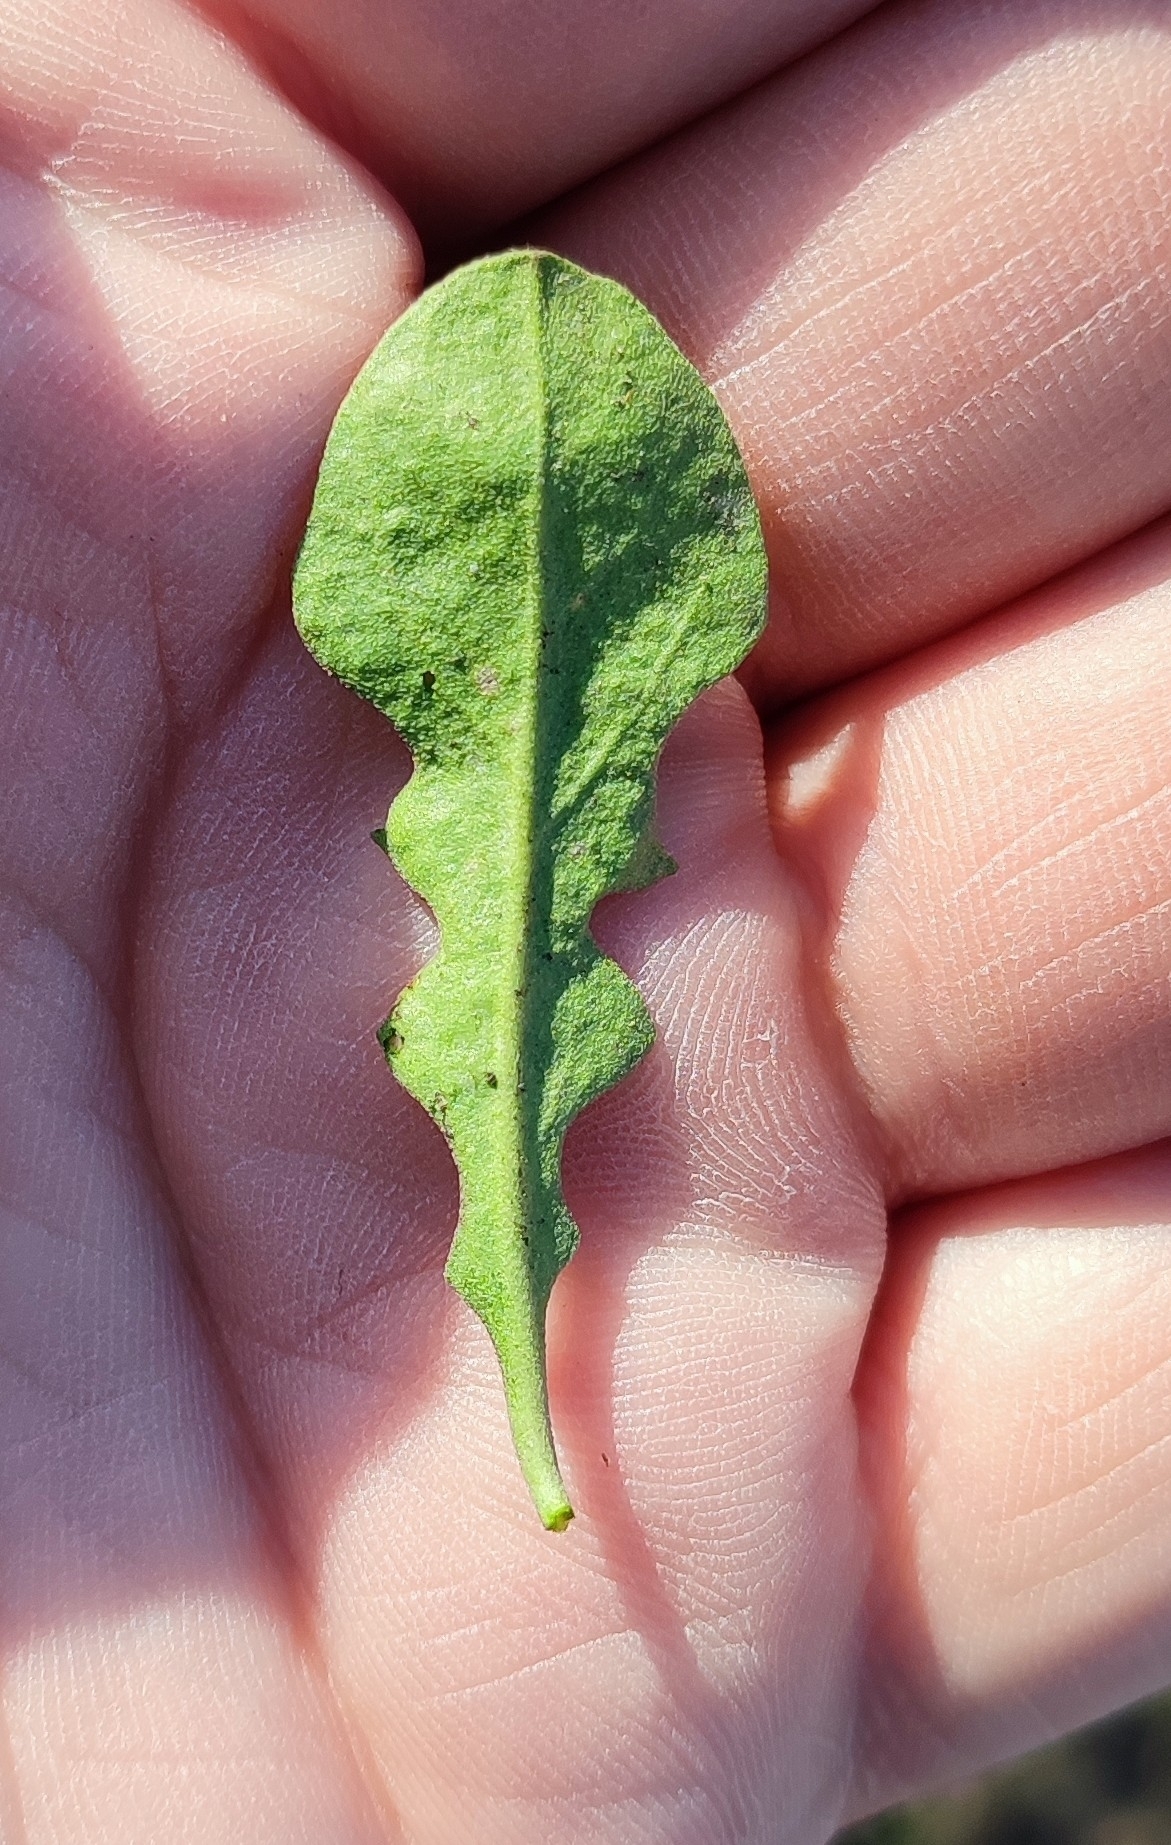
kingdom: Plantae
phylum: Tracheophyta
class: Magnoliopsida
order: Brassicales
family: Brassicaceae
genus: Berteroa
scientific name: Berteroa incana
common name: Hoary alison
